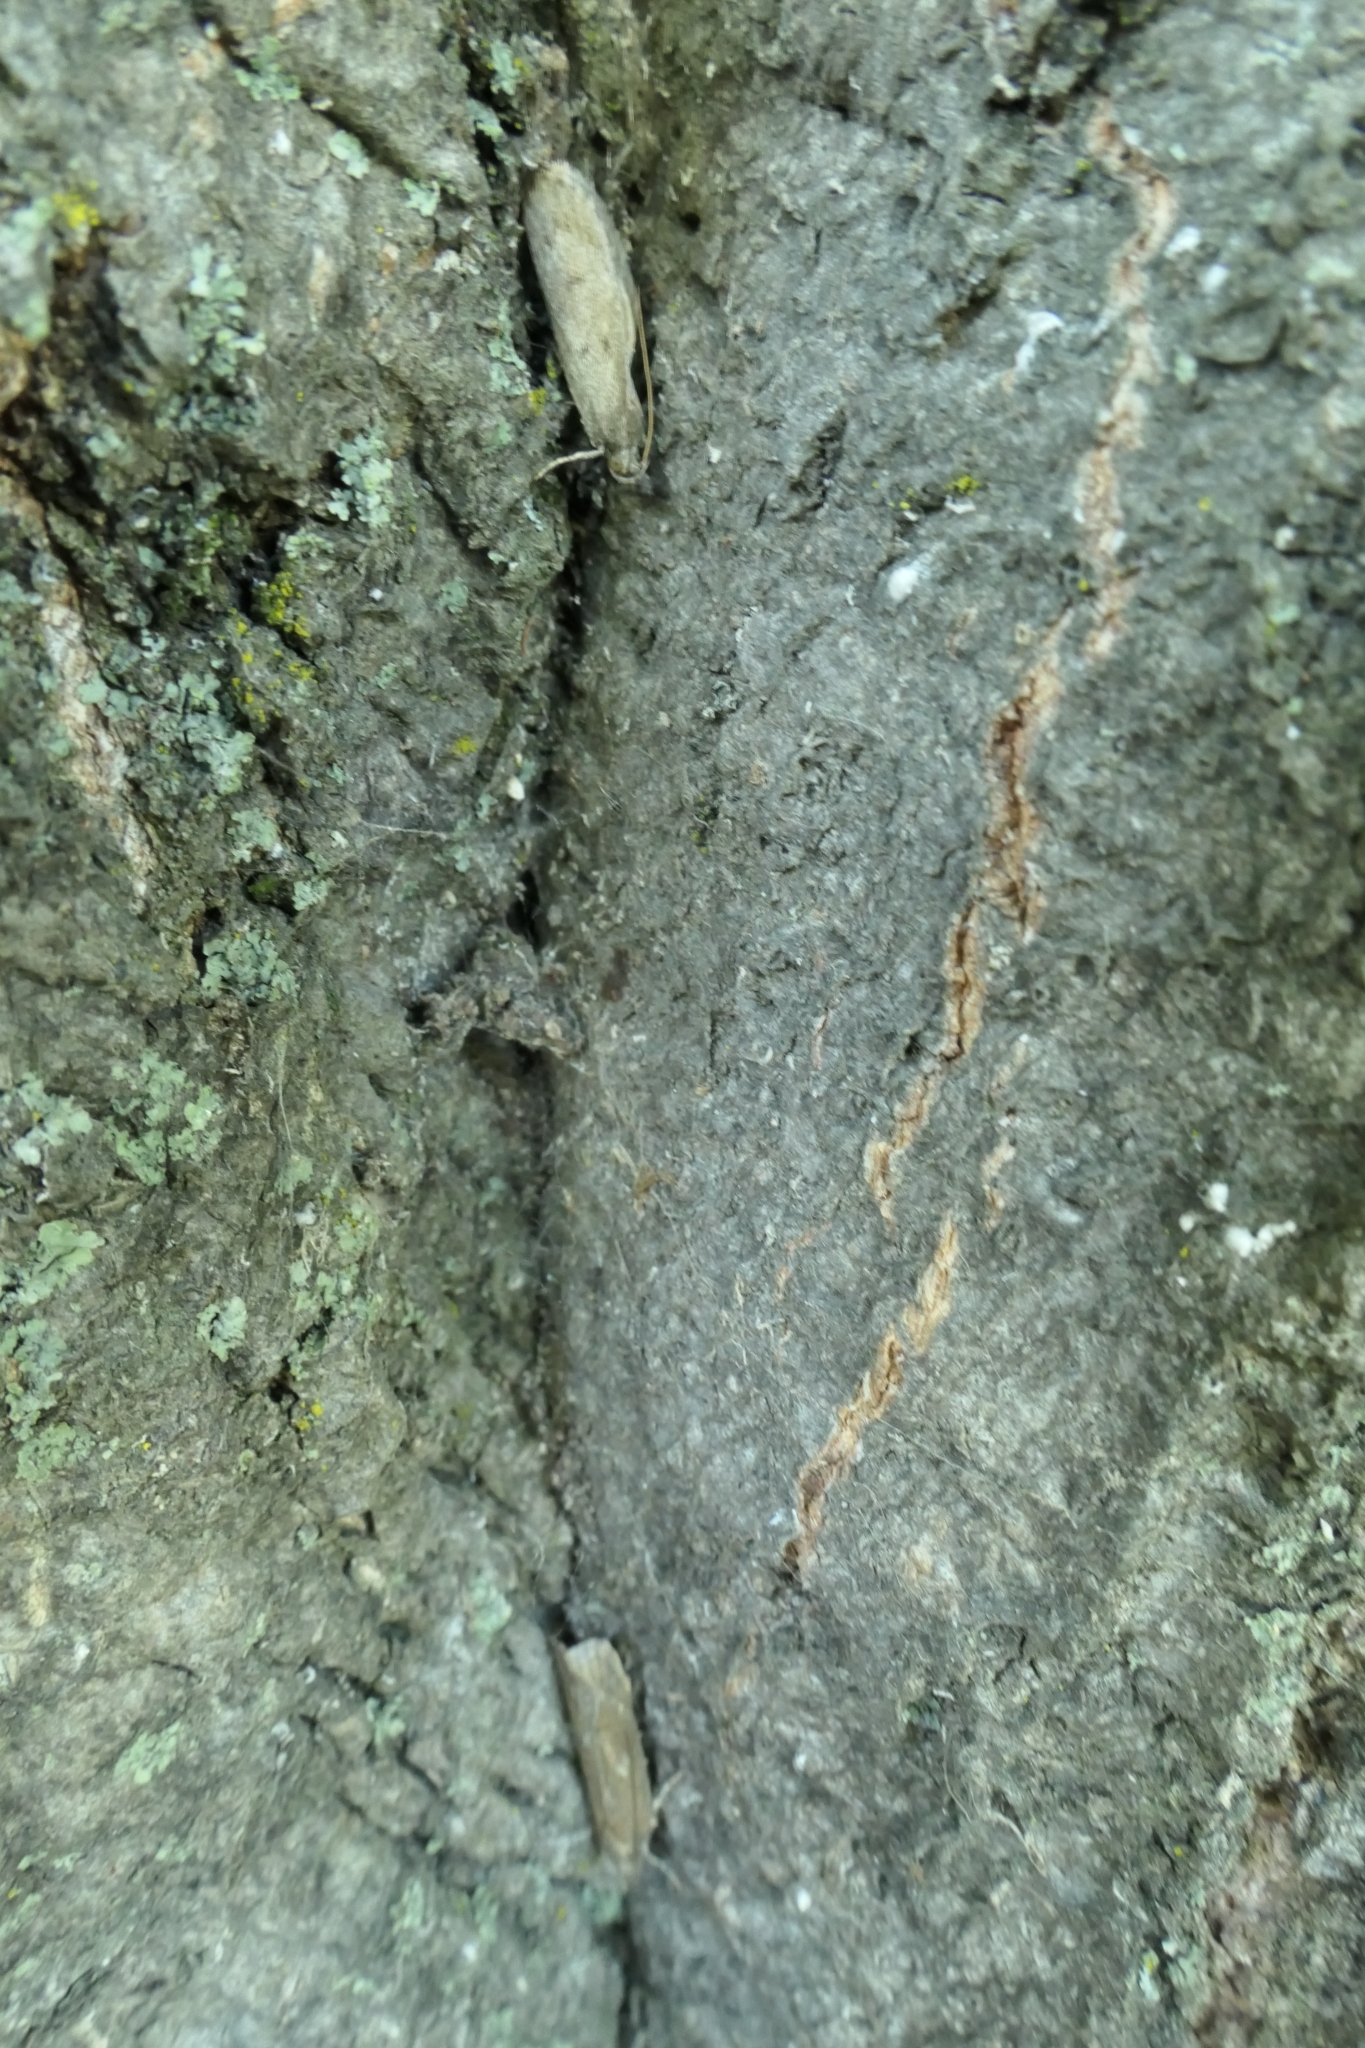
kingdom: Animalia
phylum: Arthropoda
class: Insecta
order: Lepidoptera
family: Depressariidae
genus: Phaeosaces
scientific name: Phaeosaces apocrypta
